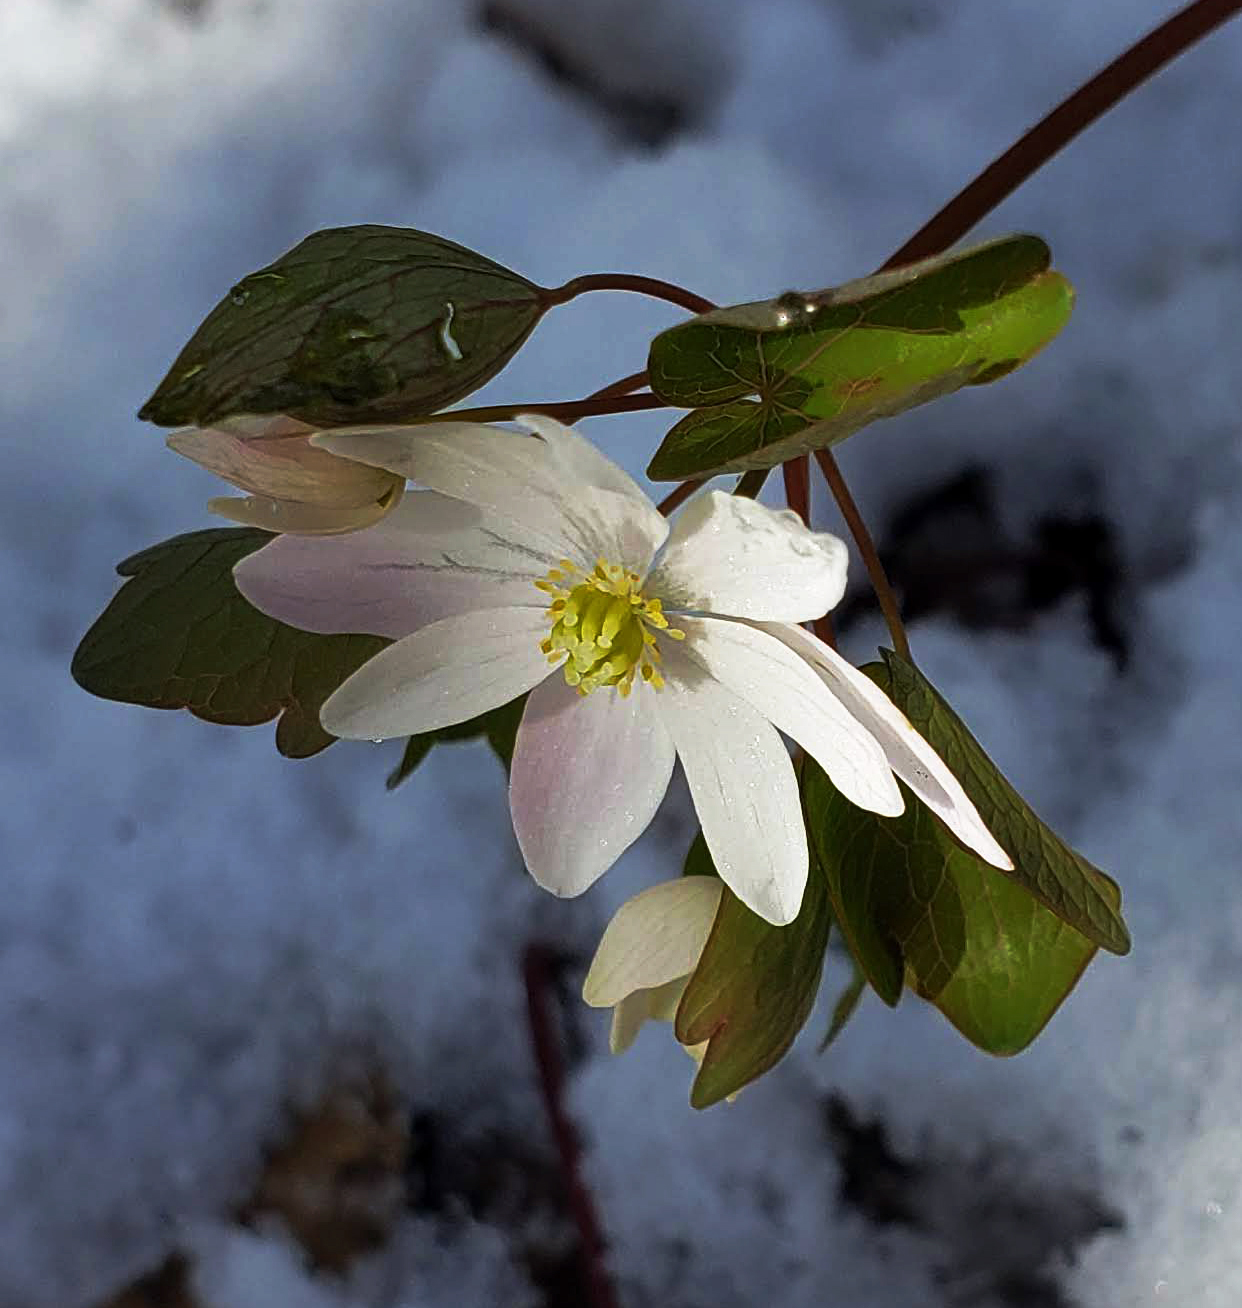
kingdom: Plantae
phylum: Tracheophyta
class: Magnoliopsida
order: Ranunculales
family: Ranunculaceae
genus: Thalictrum
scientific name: Thalictrum thalictroides
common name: Rue-anemone
